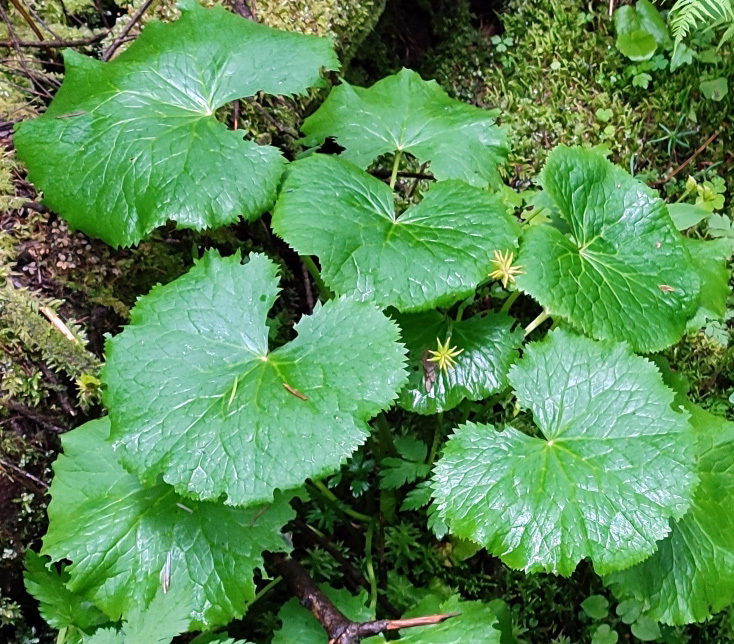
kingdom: Plantae
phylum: Tracheophyta
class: Magnoliopsida
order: Ranunculales
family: Ranunculaceae
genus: Caltha
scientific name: Caltha palustris
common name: Marsh marigold
